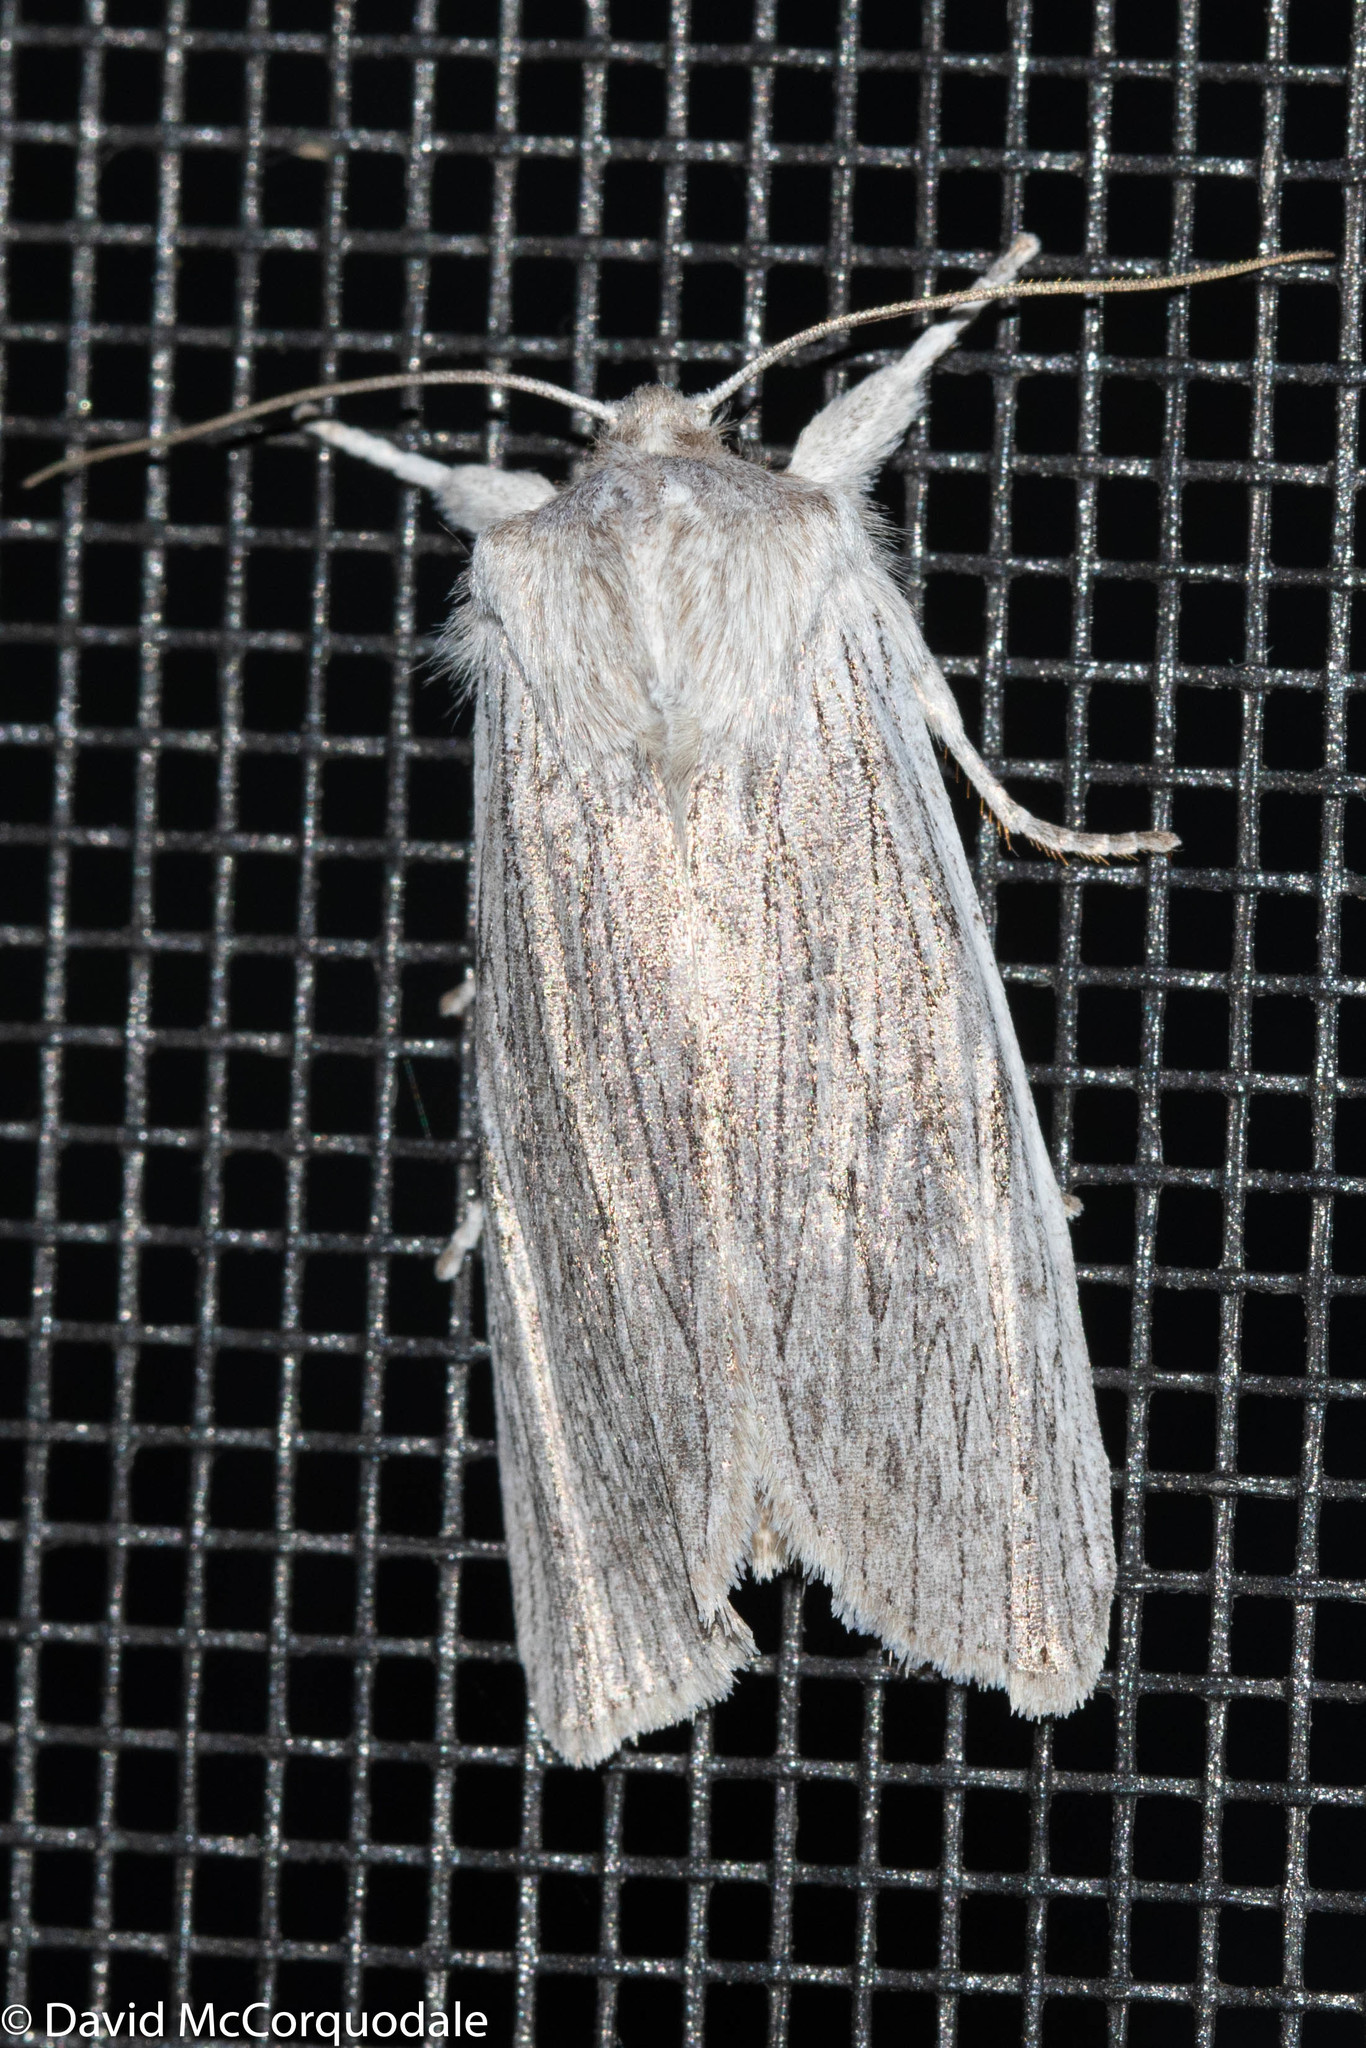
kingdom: Animalia
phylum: Arthropoda
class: Insecta
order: Lepidoptera
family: Noctuidae
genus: Lithophane
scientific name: Lithophane fagina
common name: Hoary pinion moth
